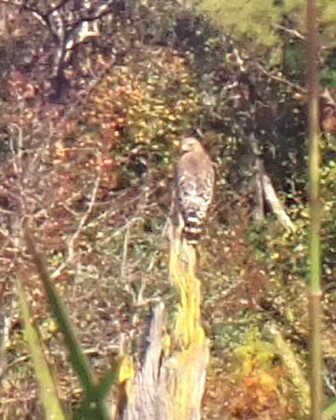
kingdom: Animalia
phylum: Chordata
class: Aves
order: Accipitriformes
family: Accipitridae
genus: Buteo
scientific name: Buteo lineatus
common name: Red-shouldered hawk
